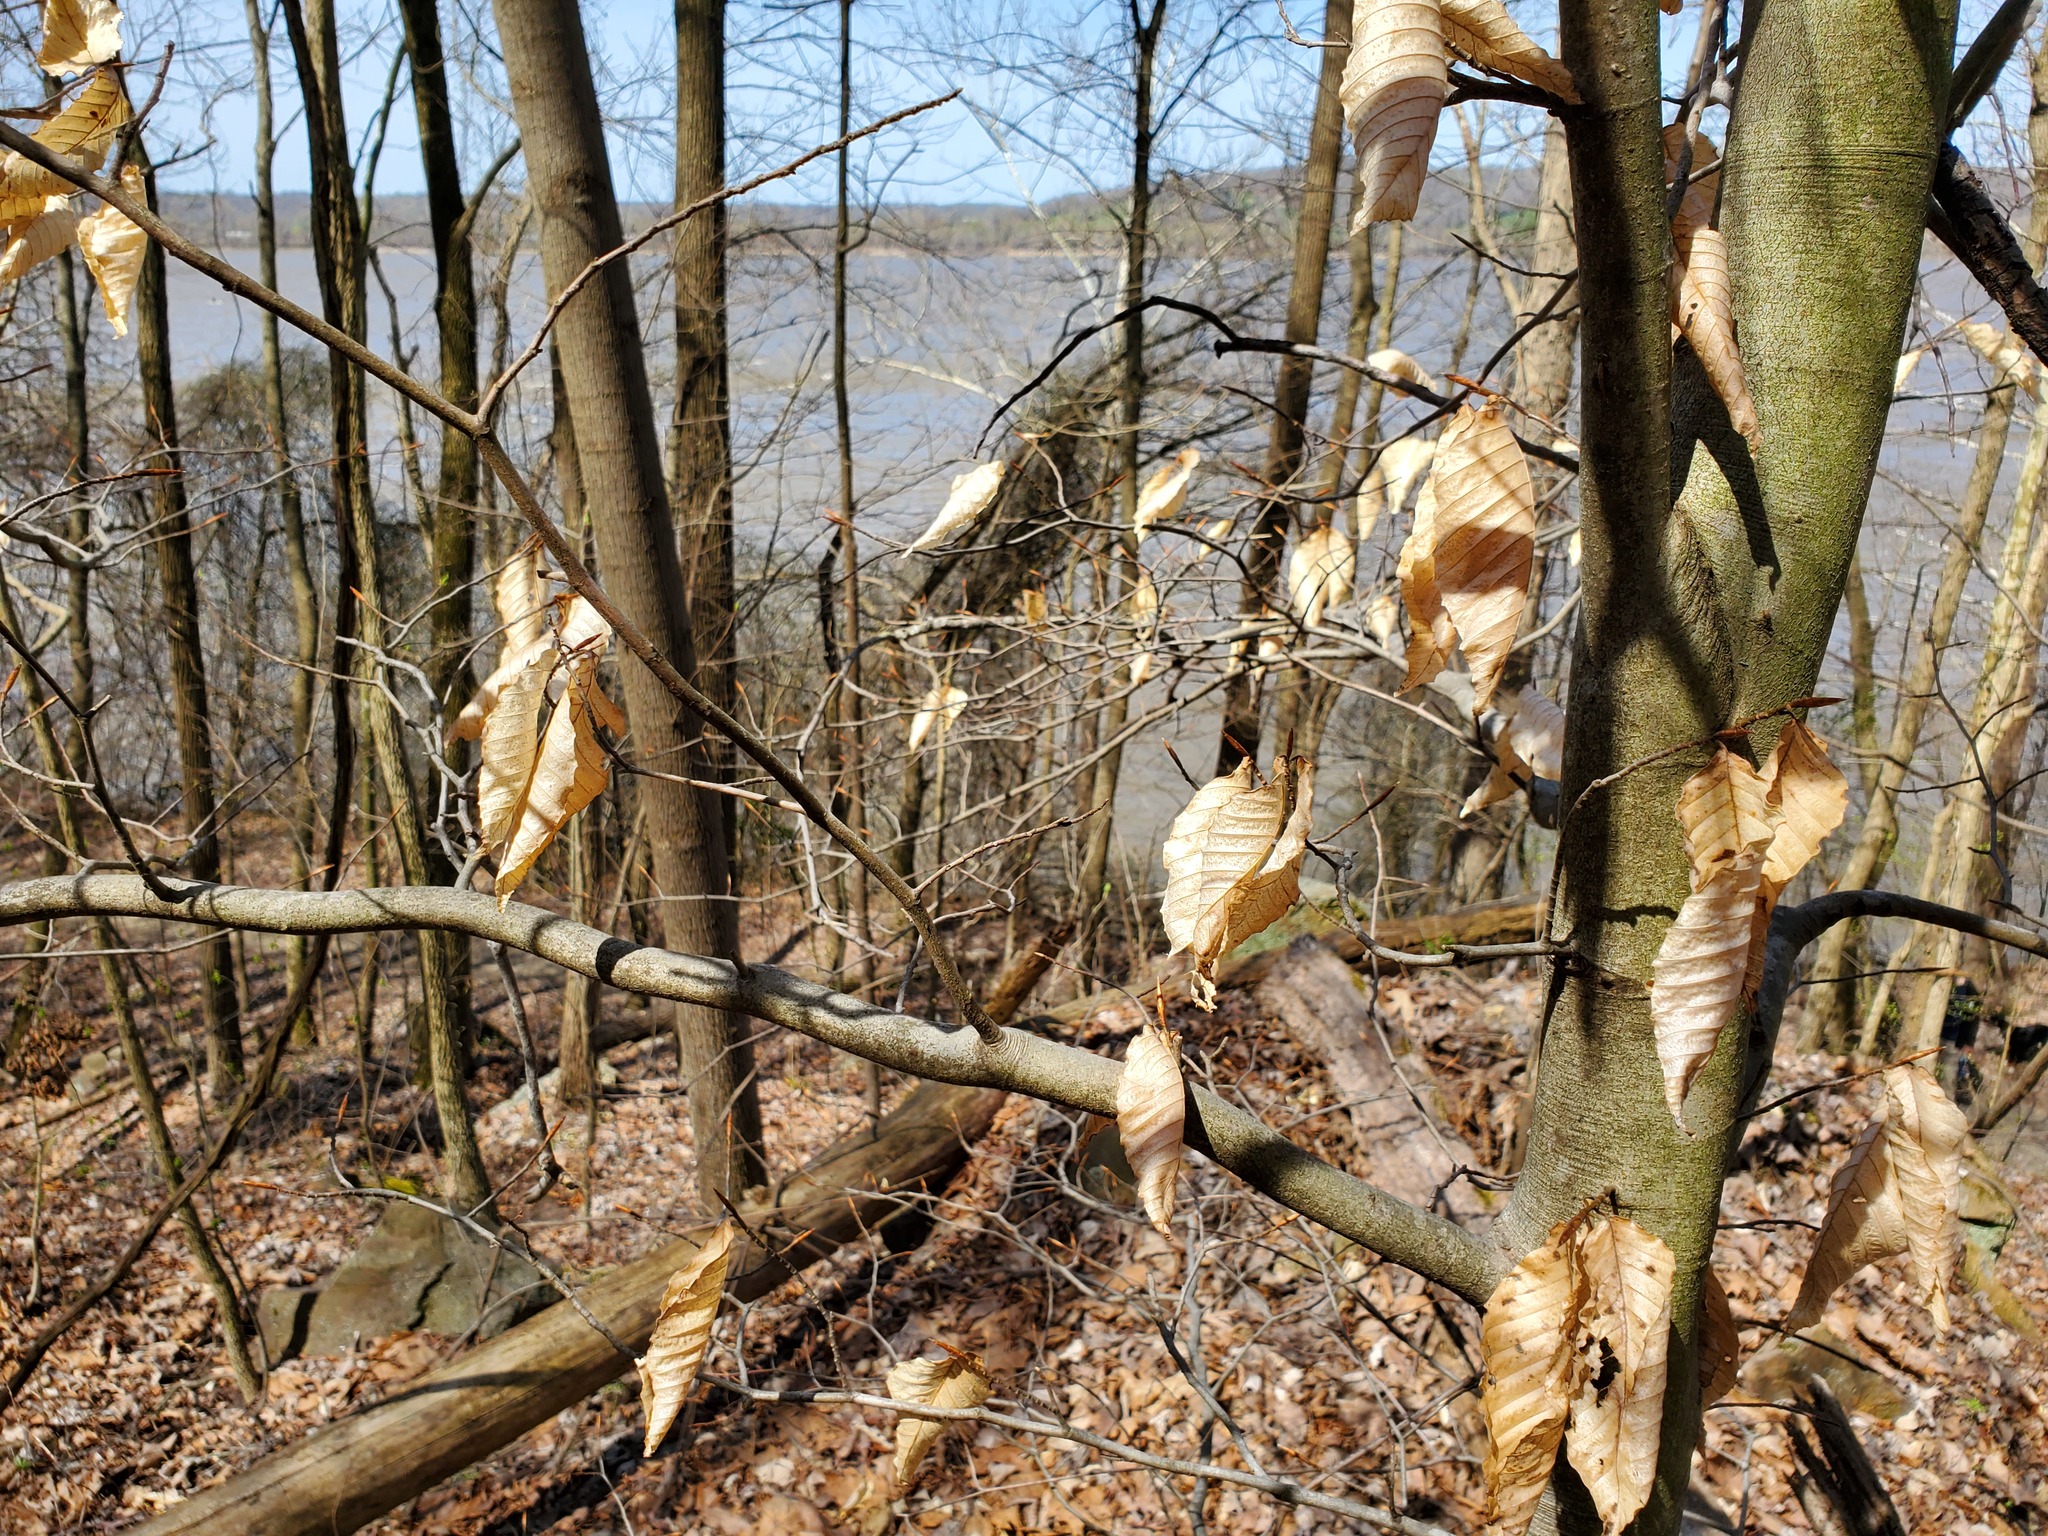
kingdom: Plantae
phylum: Tracheophyta
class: Magnoliopsida
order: Fagales
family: Fagaceae
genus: Fagus
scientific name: Fagus grandifolia
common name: American beech
